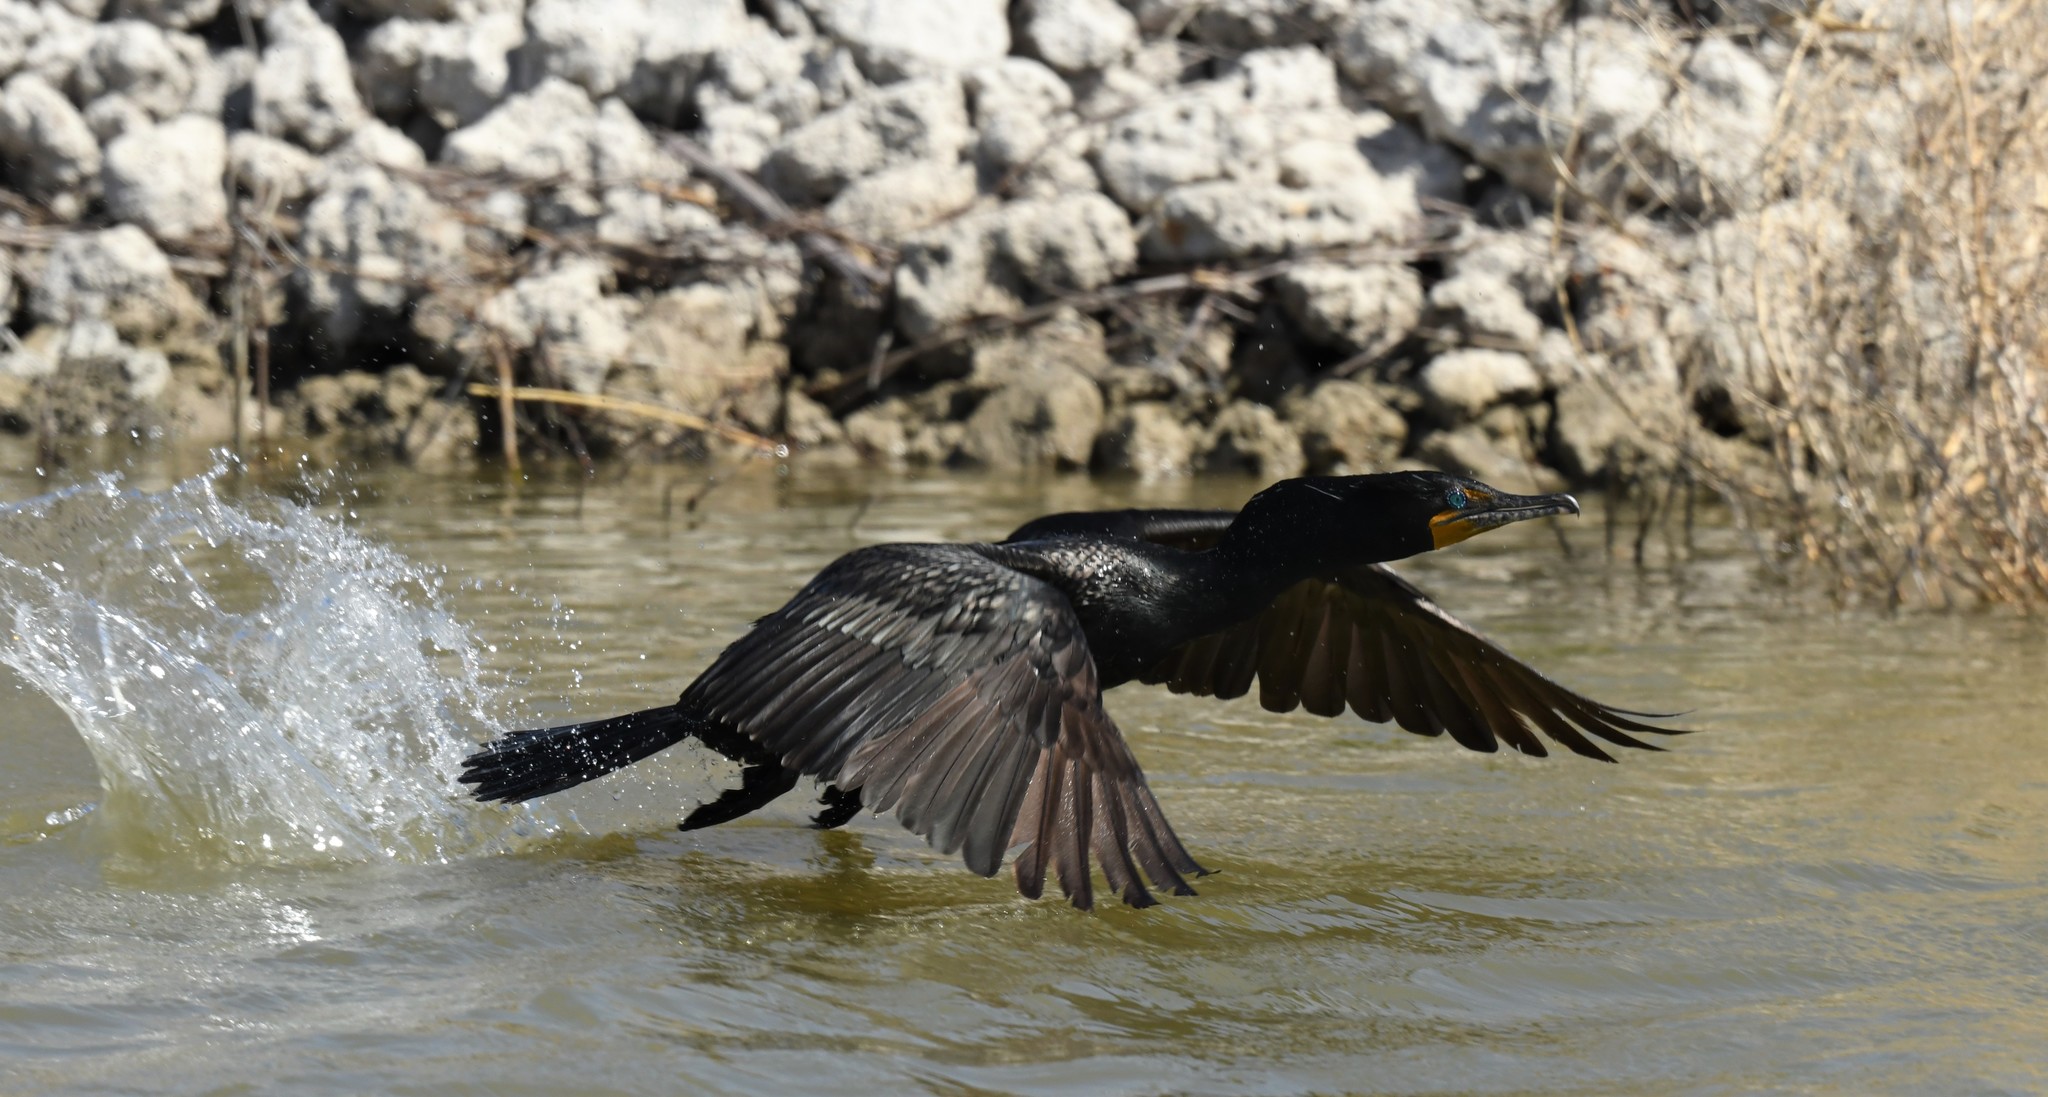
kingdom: Animalia
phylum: Chordata
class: Aves
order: Suliformes
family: Phalacrocoracidae
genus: Phalacrocorax
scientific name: Phalacrocorax auritus
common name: Double-crested cormorant
